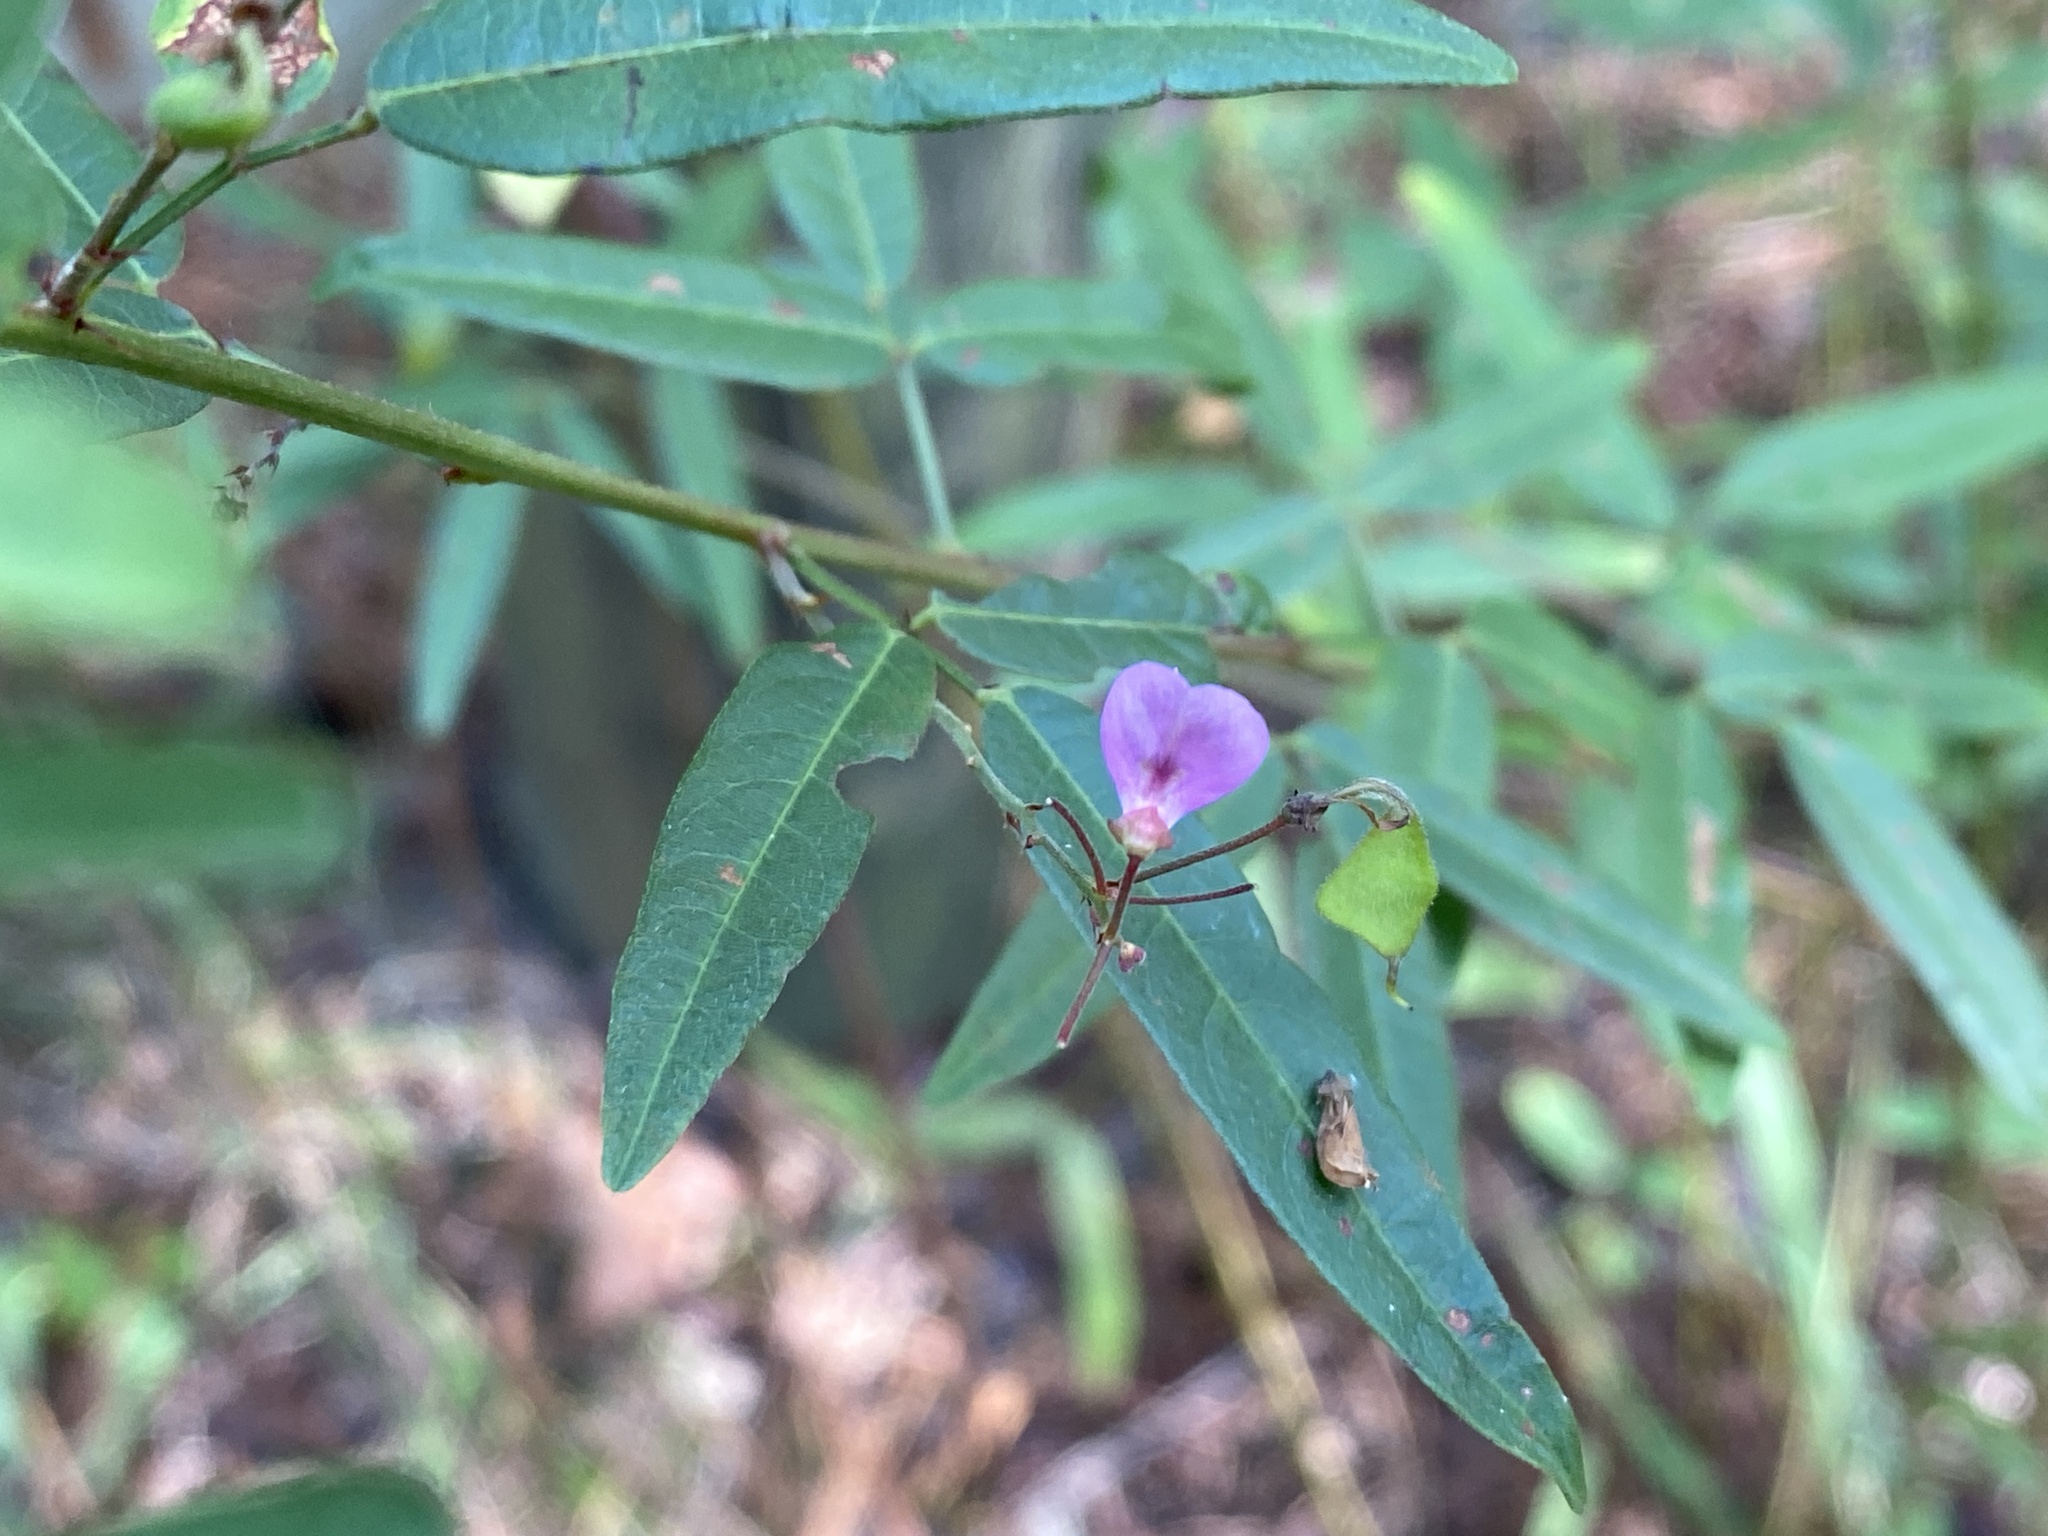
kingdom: Plantae
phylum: Tracheophyta
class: Magnoliopsida
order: Fabales
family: Fabaceae
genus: Desmodium
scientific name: Desmodium paniculatum
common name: Panicled tick-clover
